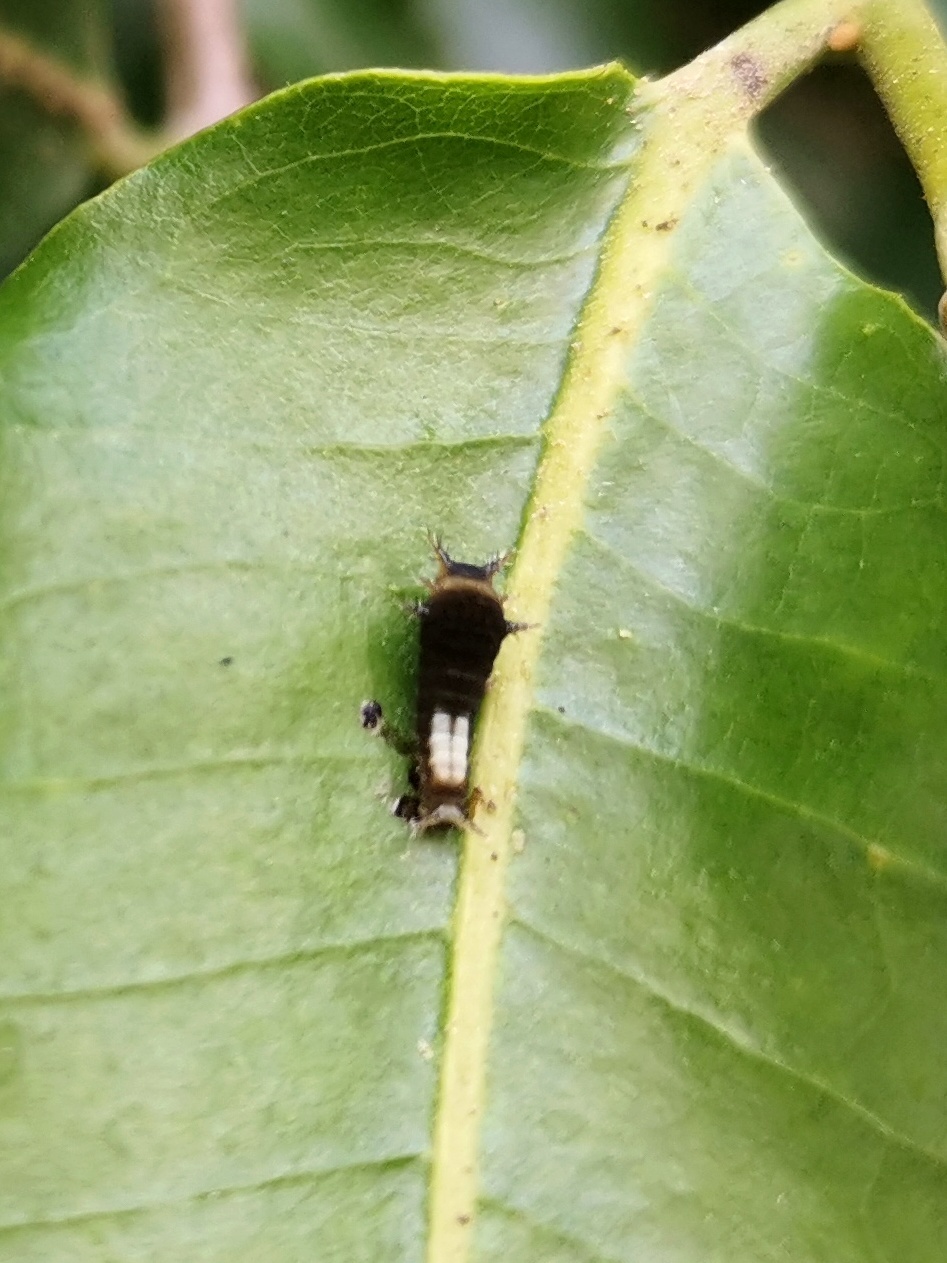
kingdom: Animalia
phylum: Arthropoda
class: Insecta
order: Lepidoptera
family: Papilionidae
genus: Graphium
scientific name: Graphium agamemnon
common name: Tailed jay
